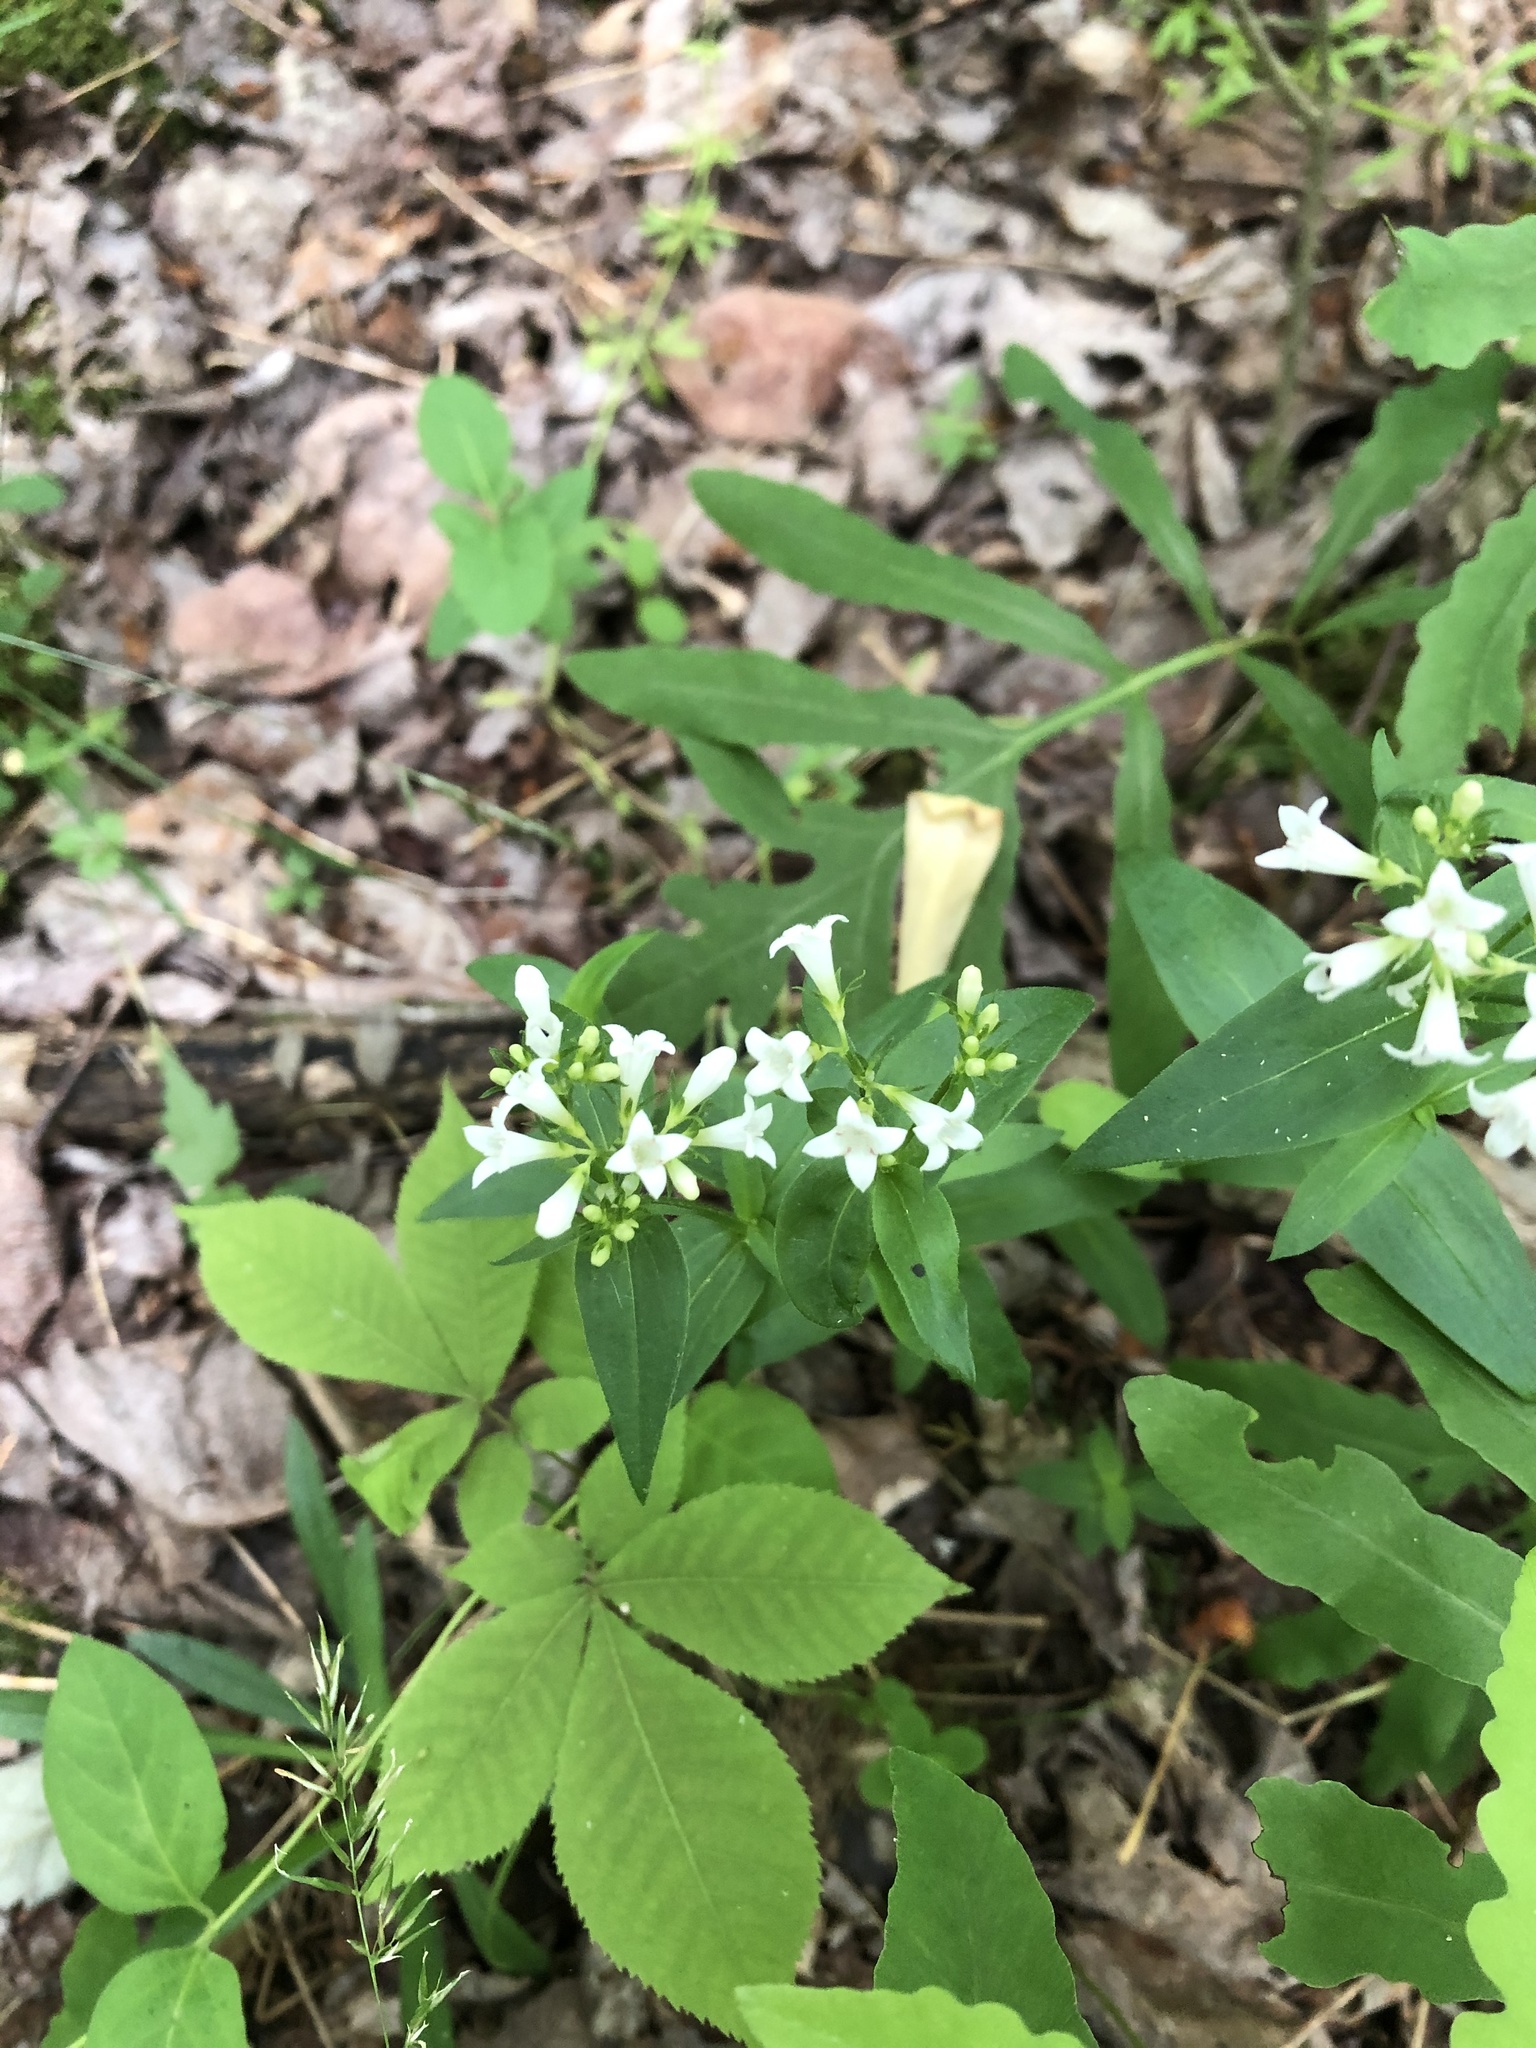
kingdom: Plantae
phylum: Tracheophyta
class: Magnoliopsida
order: Gentianales
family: Rubiaceae
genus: Houstonia
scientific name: Houstonia purpurea
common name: Summer bluet
